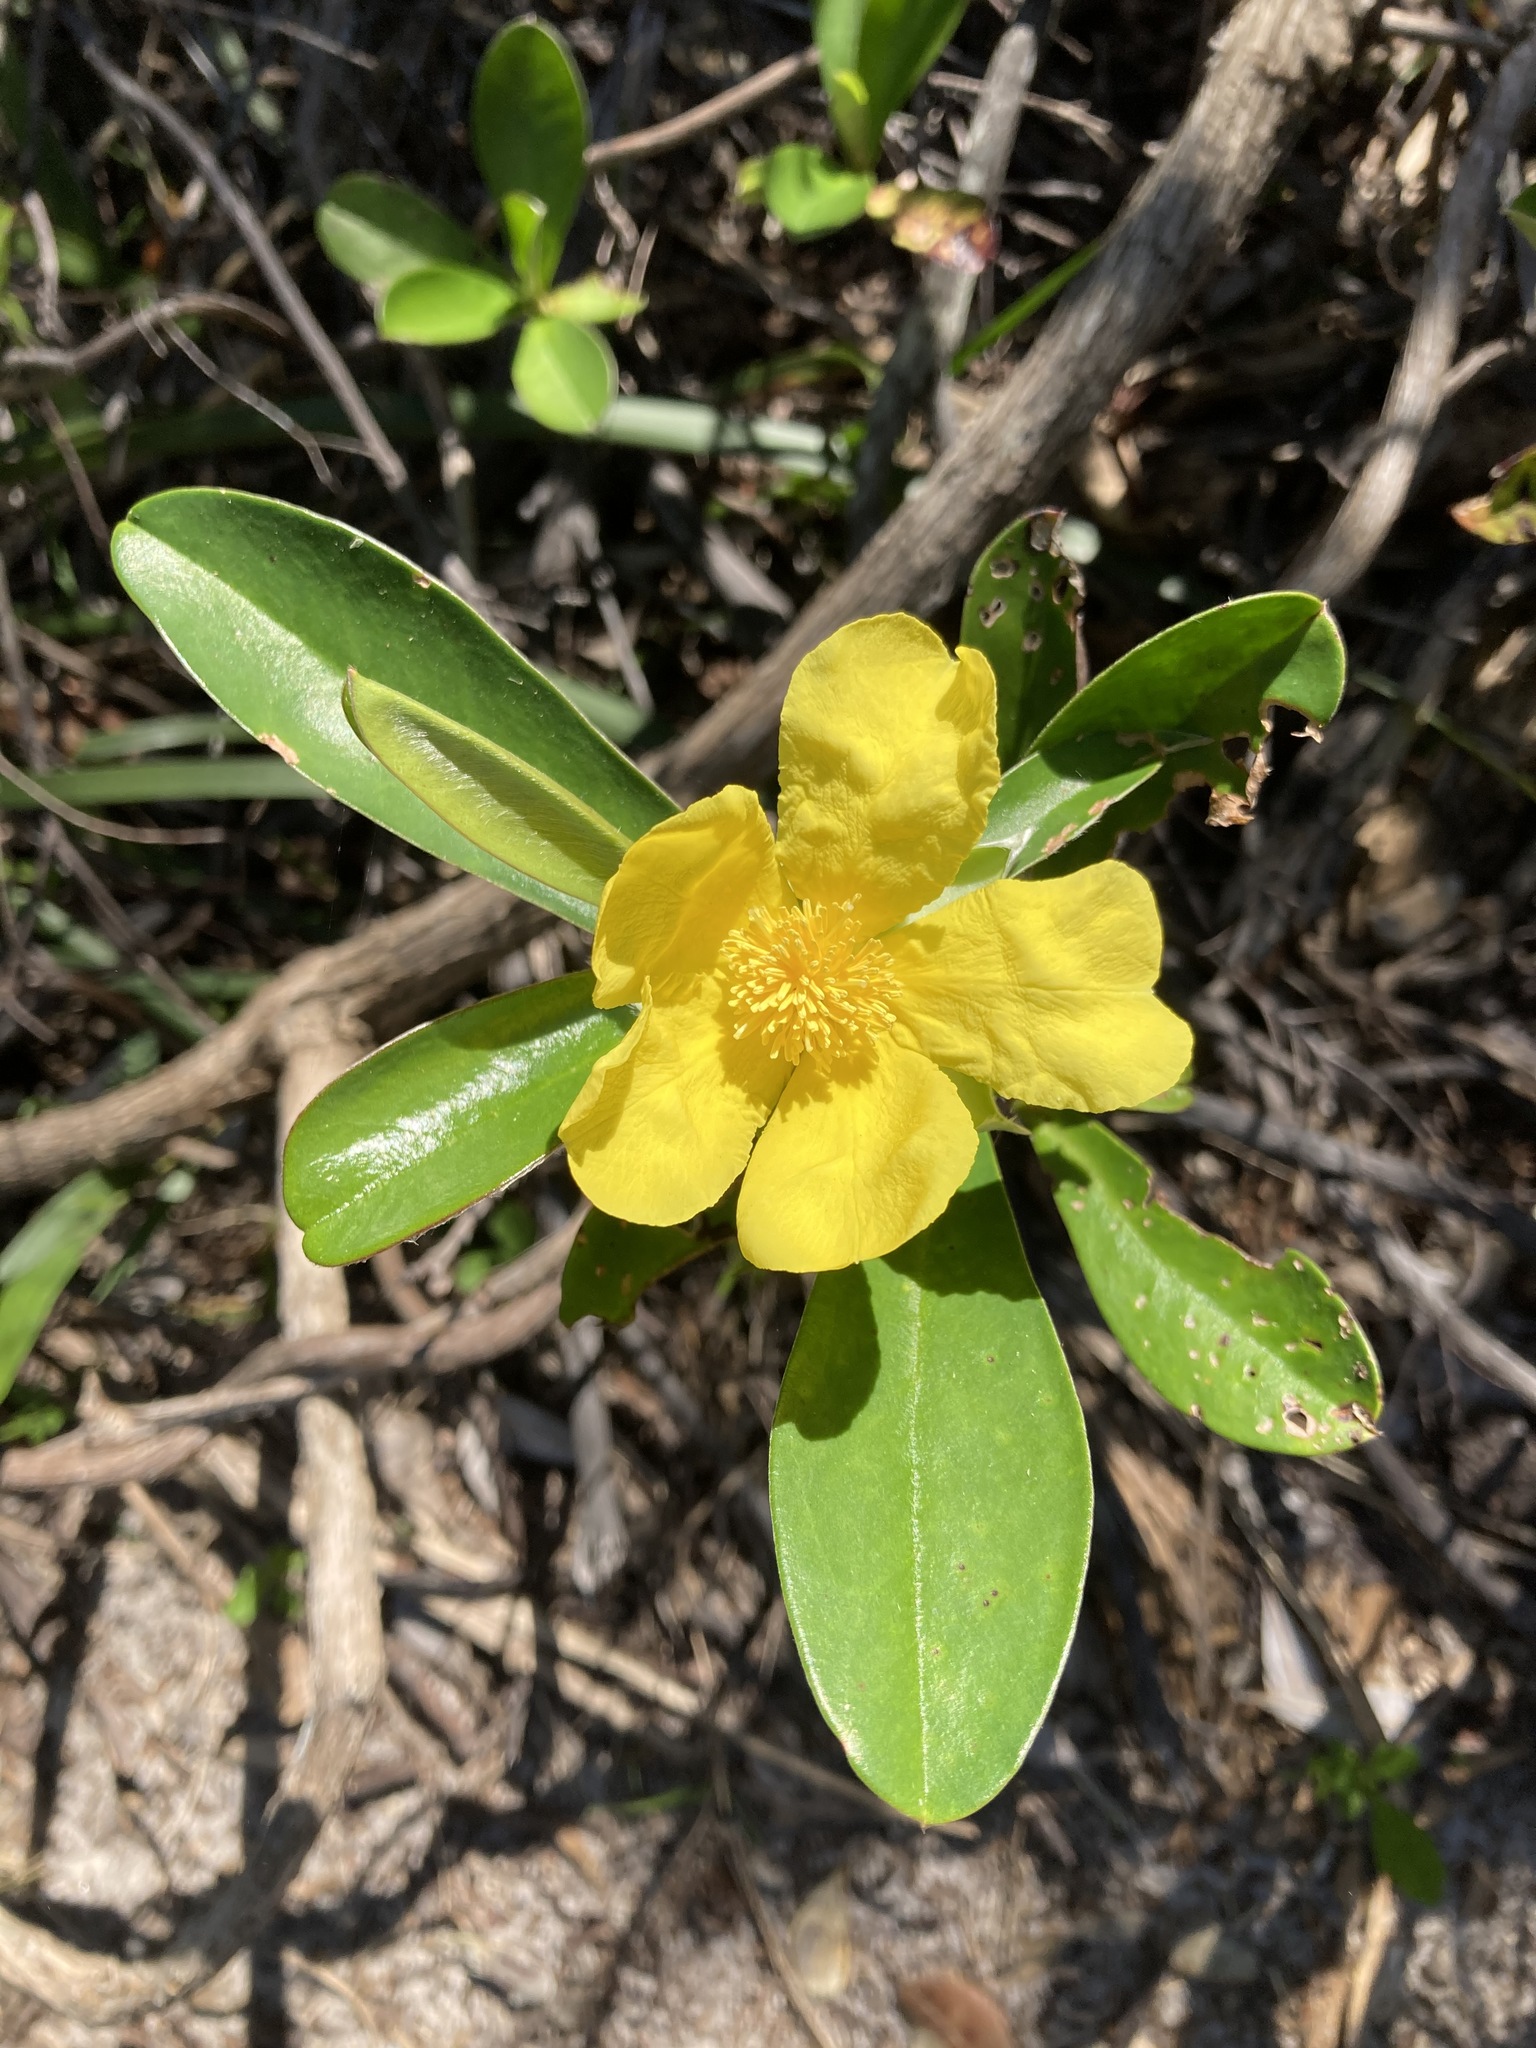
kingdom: Plantae
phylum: Tracheophyta
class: Magnoliopsida
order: Dilleniales
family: Dilleniaceae
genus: Hibbertia
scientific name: Hibbertia scandens
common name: Climbing guinea-flower
